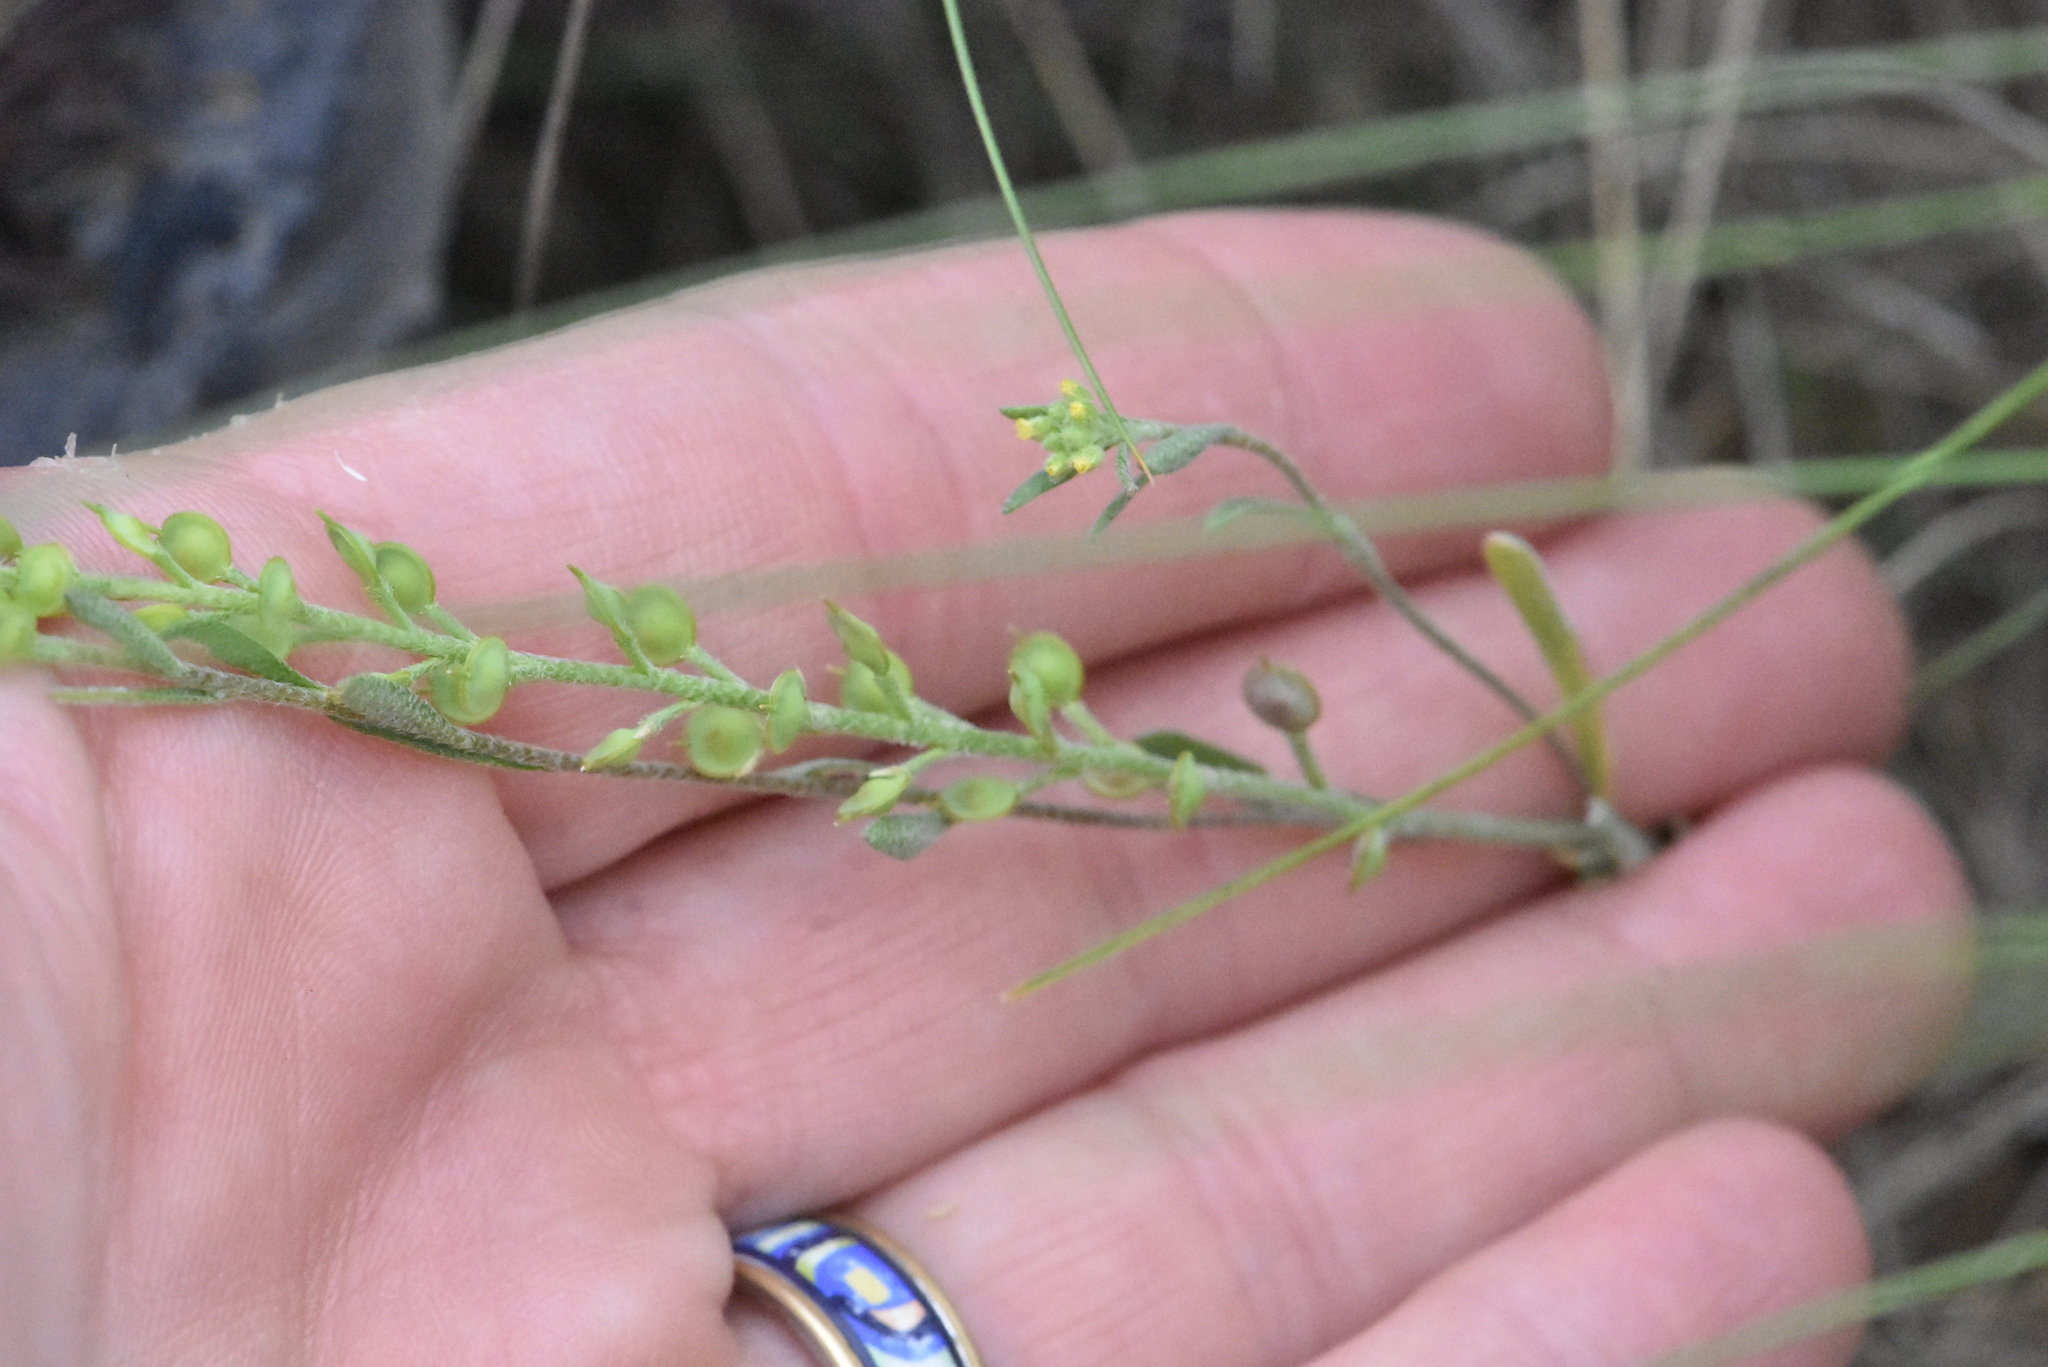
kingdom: Plantae
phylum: Tracheophyta
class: Magnoliopsida
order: Brassicales
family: Brassicaceae
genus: Alyssum
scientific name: Alyssum turkestanicum
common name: Desert alyssum
